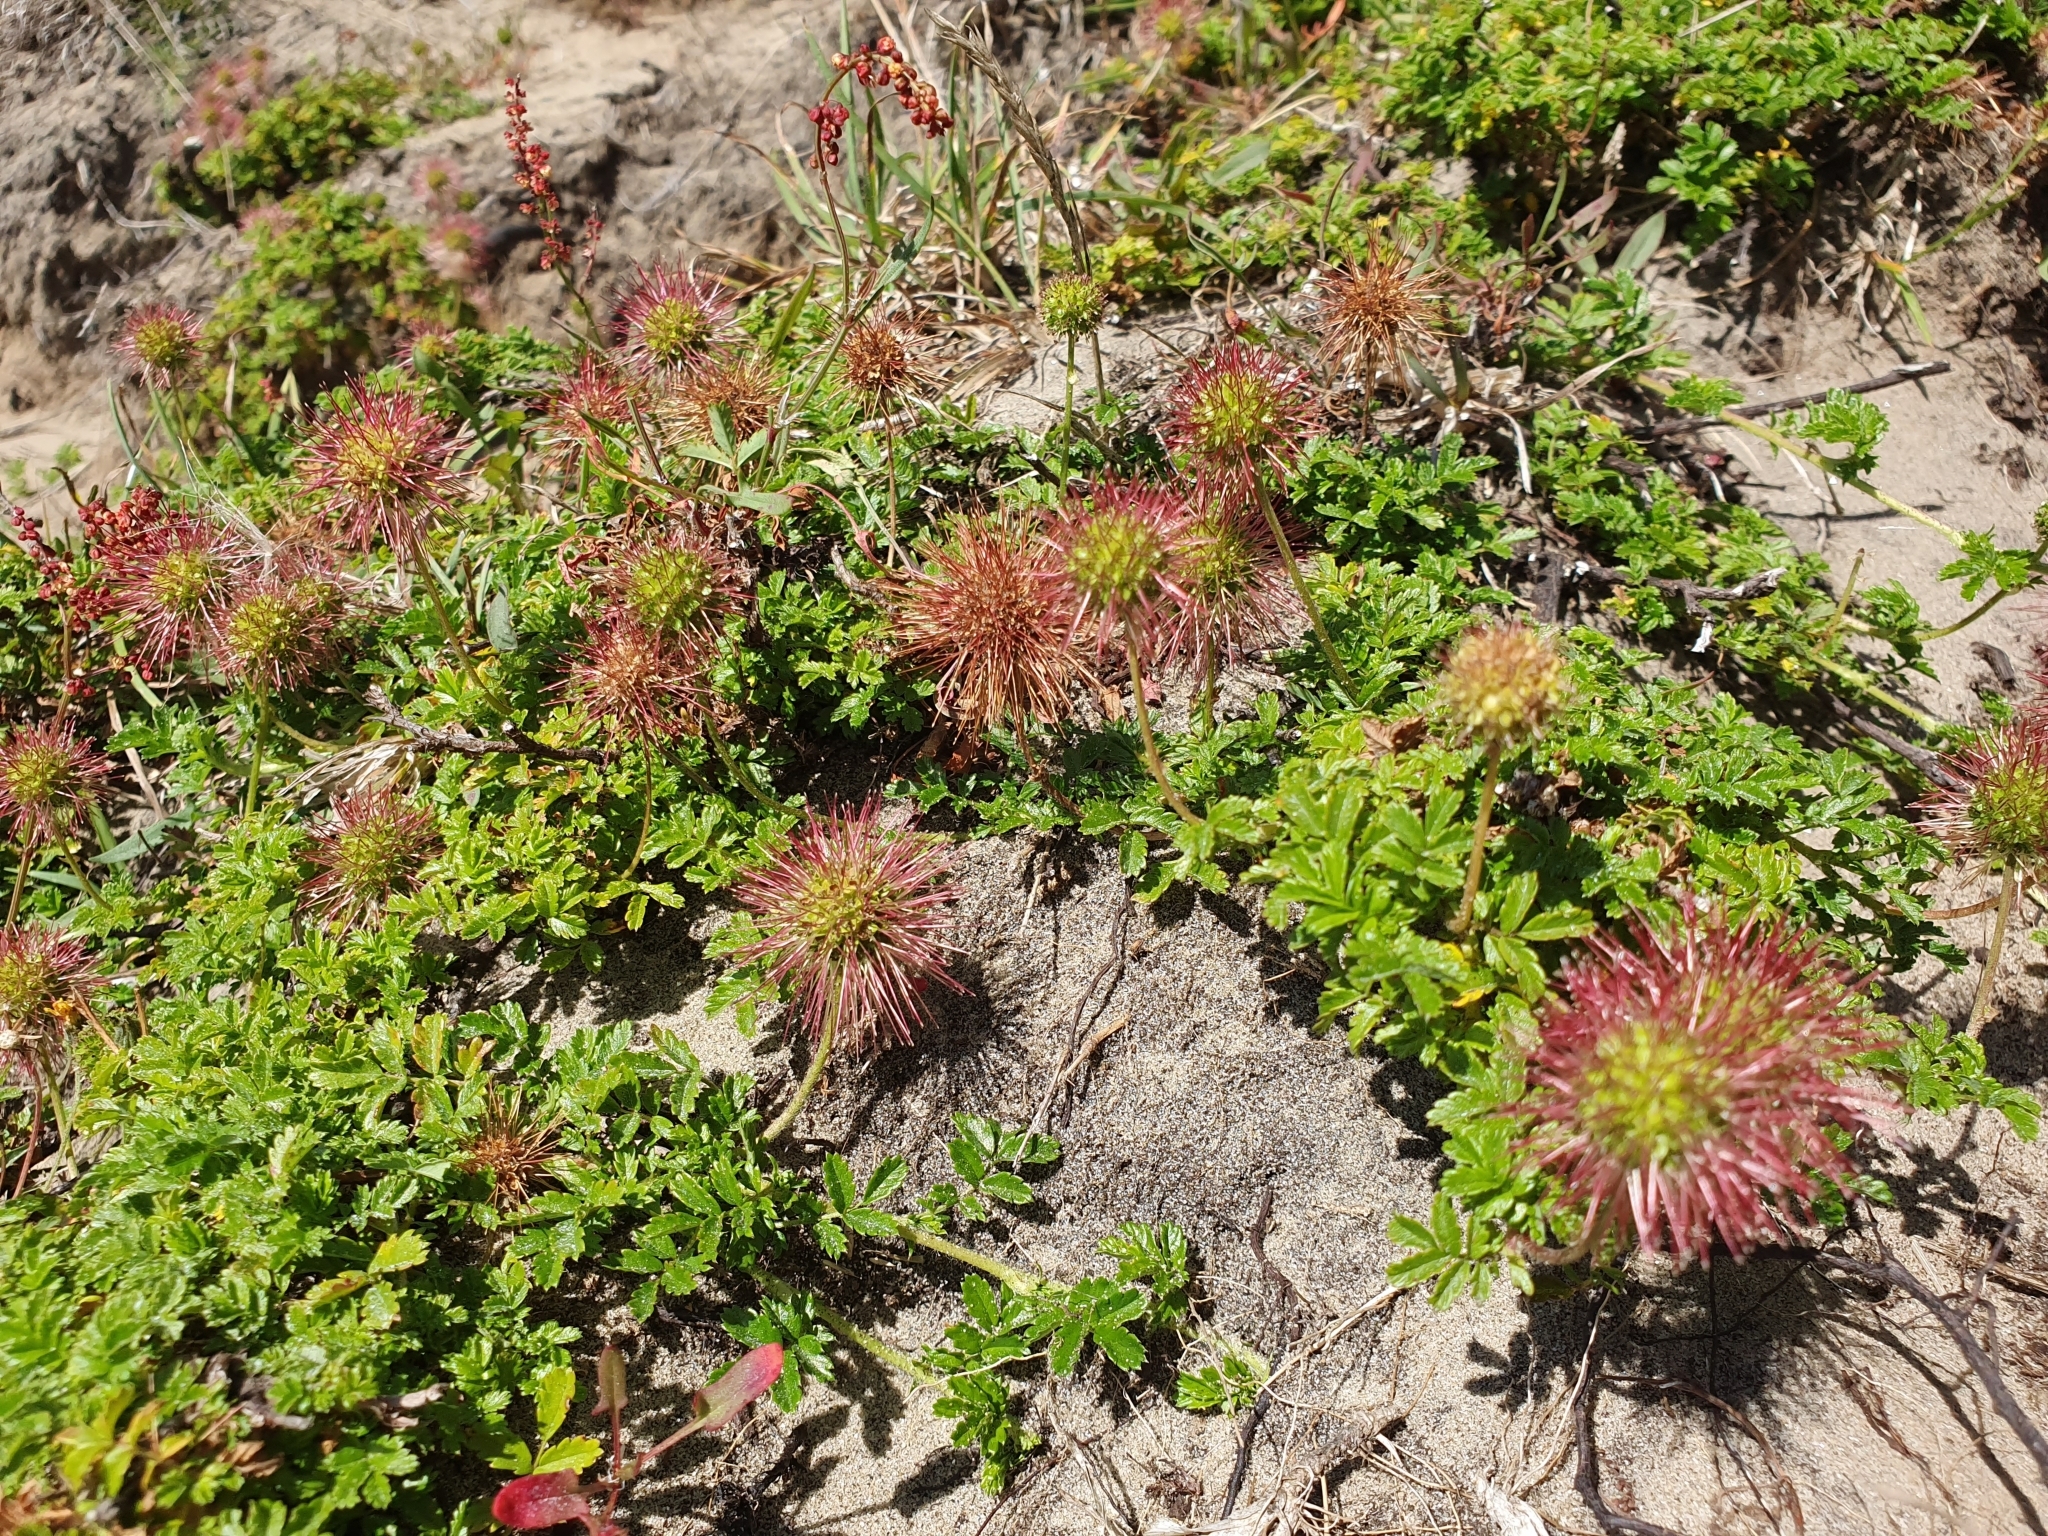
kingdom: Plantae
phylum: Tracheophyta
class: Magnoliopsida
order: Rosales
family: Rosaceae
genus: Acaena
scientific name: Acaena novae-zelandiae
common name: Pirri-pirri-bur
